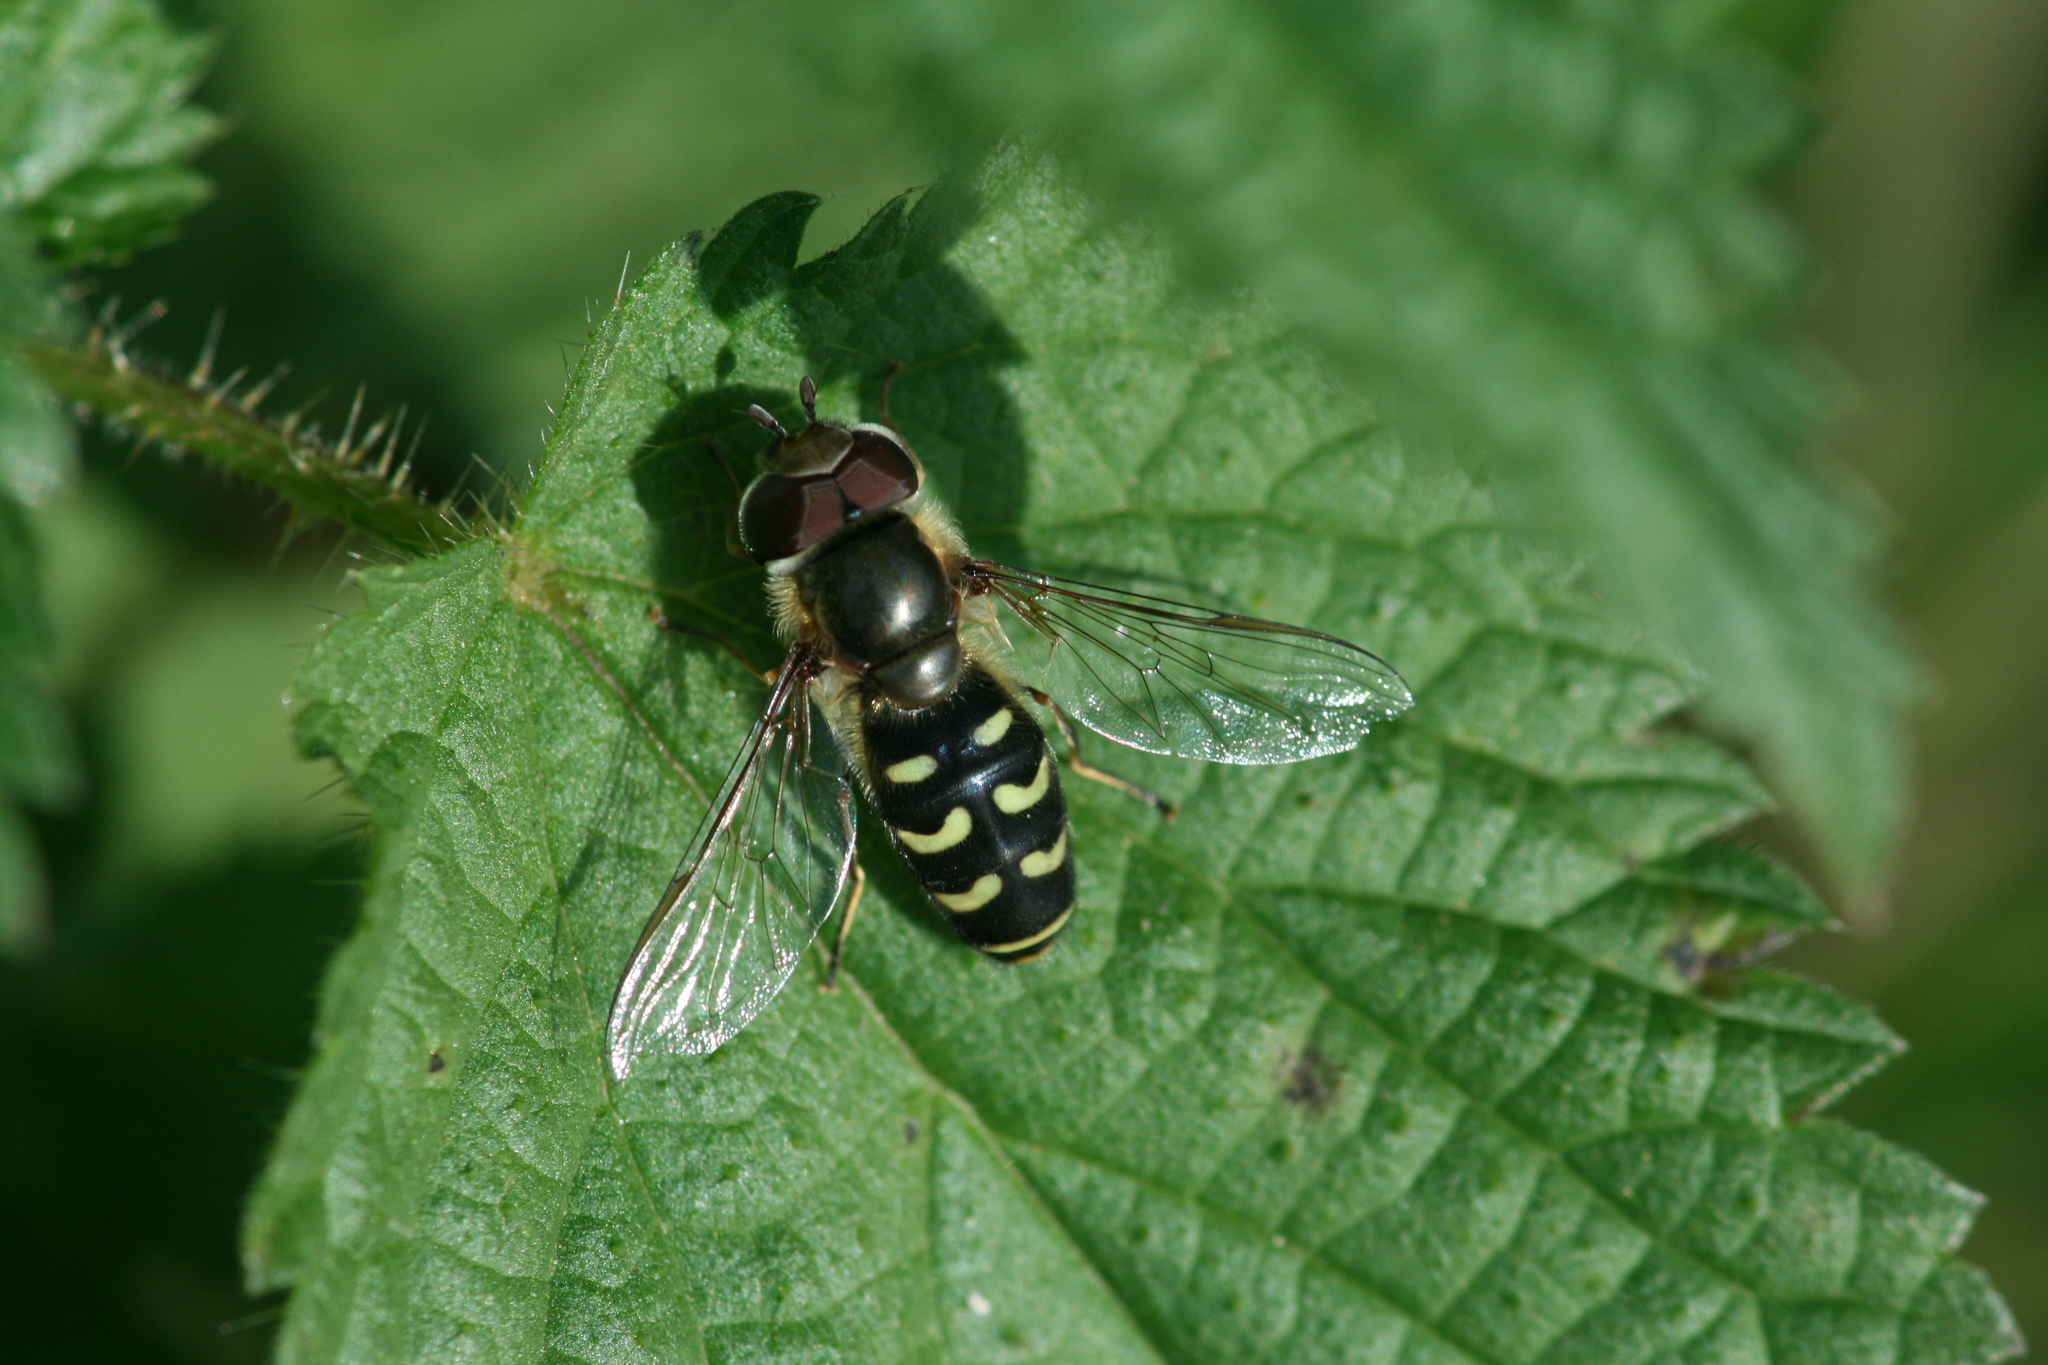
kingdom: Animalia
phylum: Arthropoda
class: Insecta
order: Diptera
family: Syrphidae
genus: Scaeva
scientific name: Scaeva selenitica
